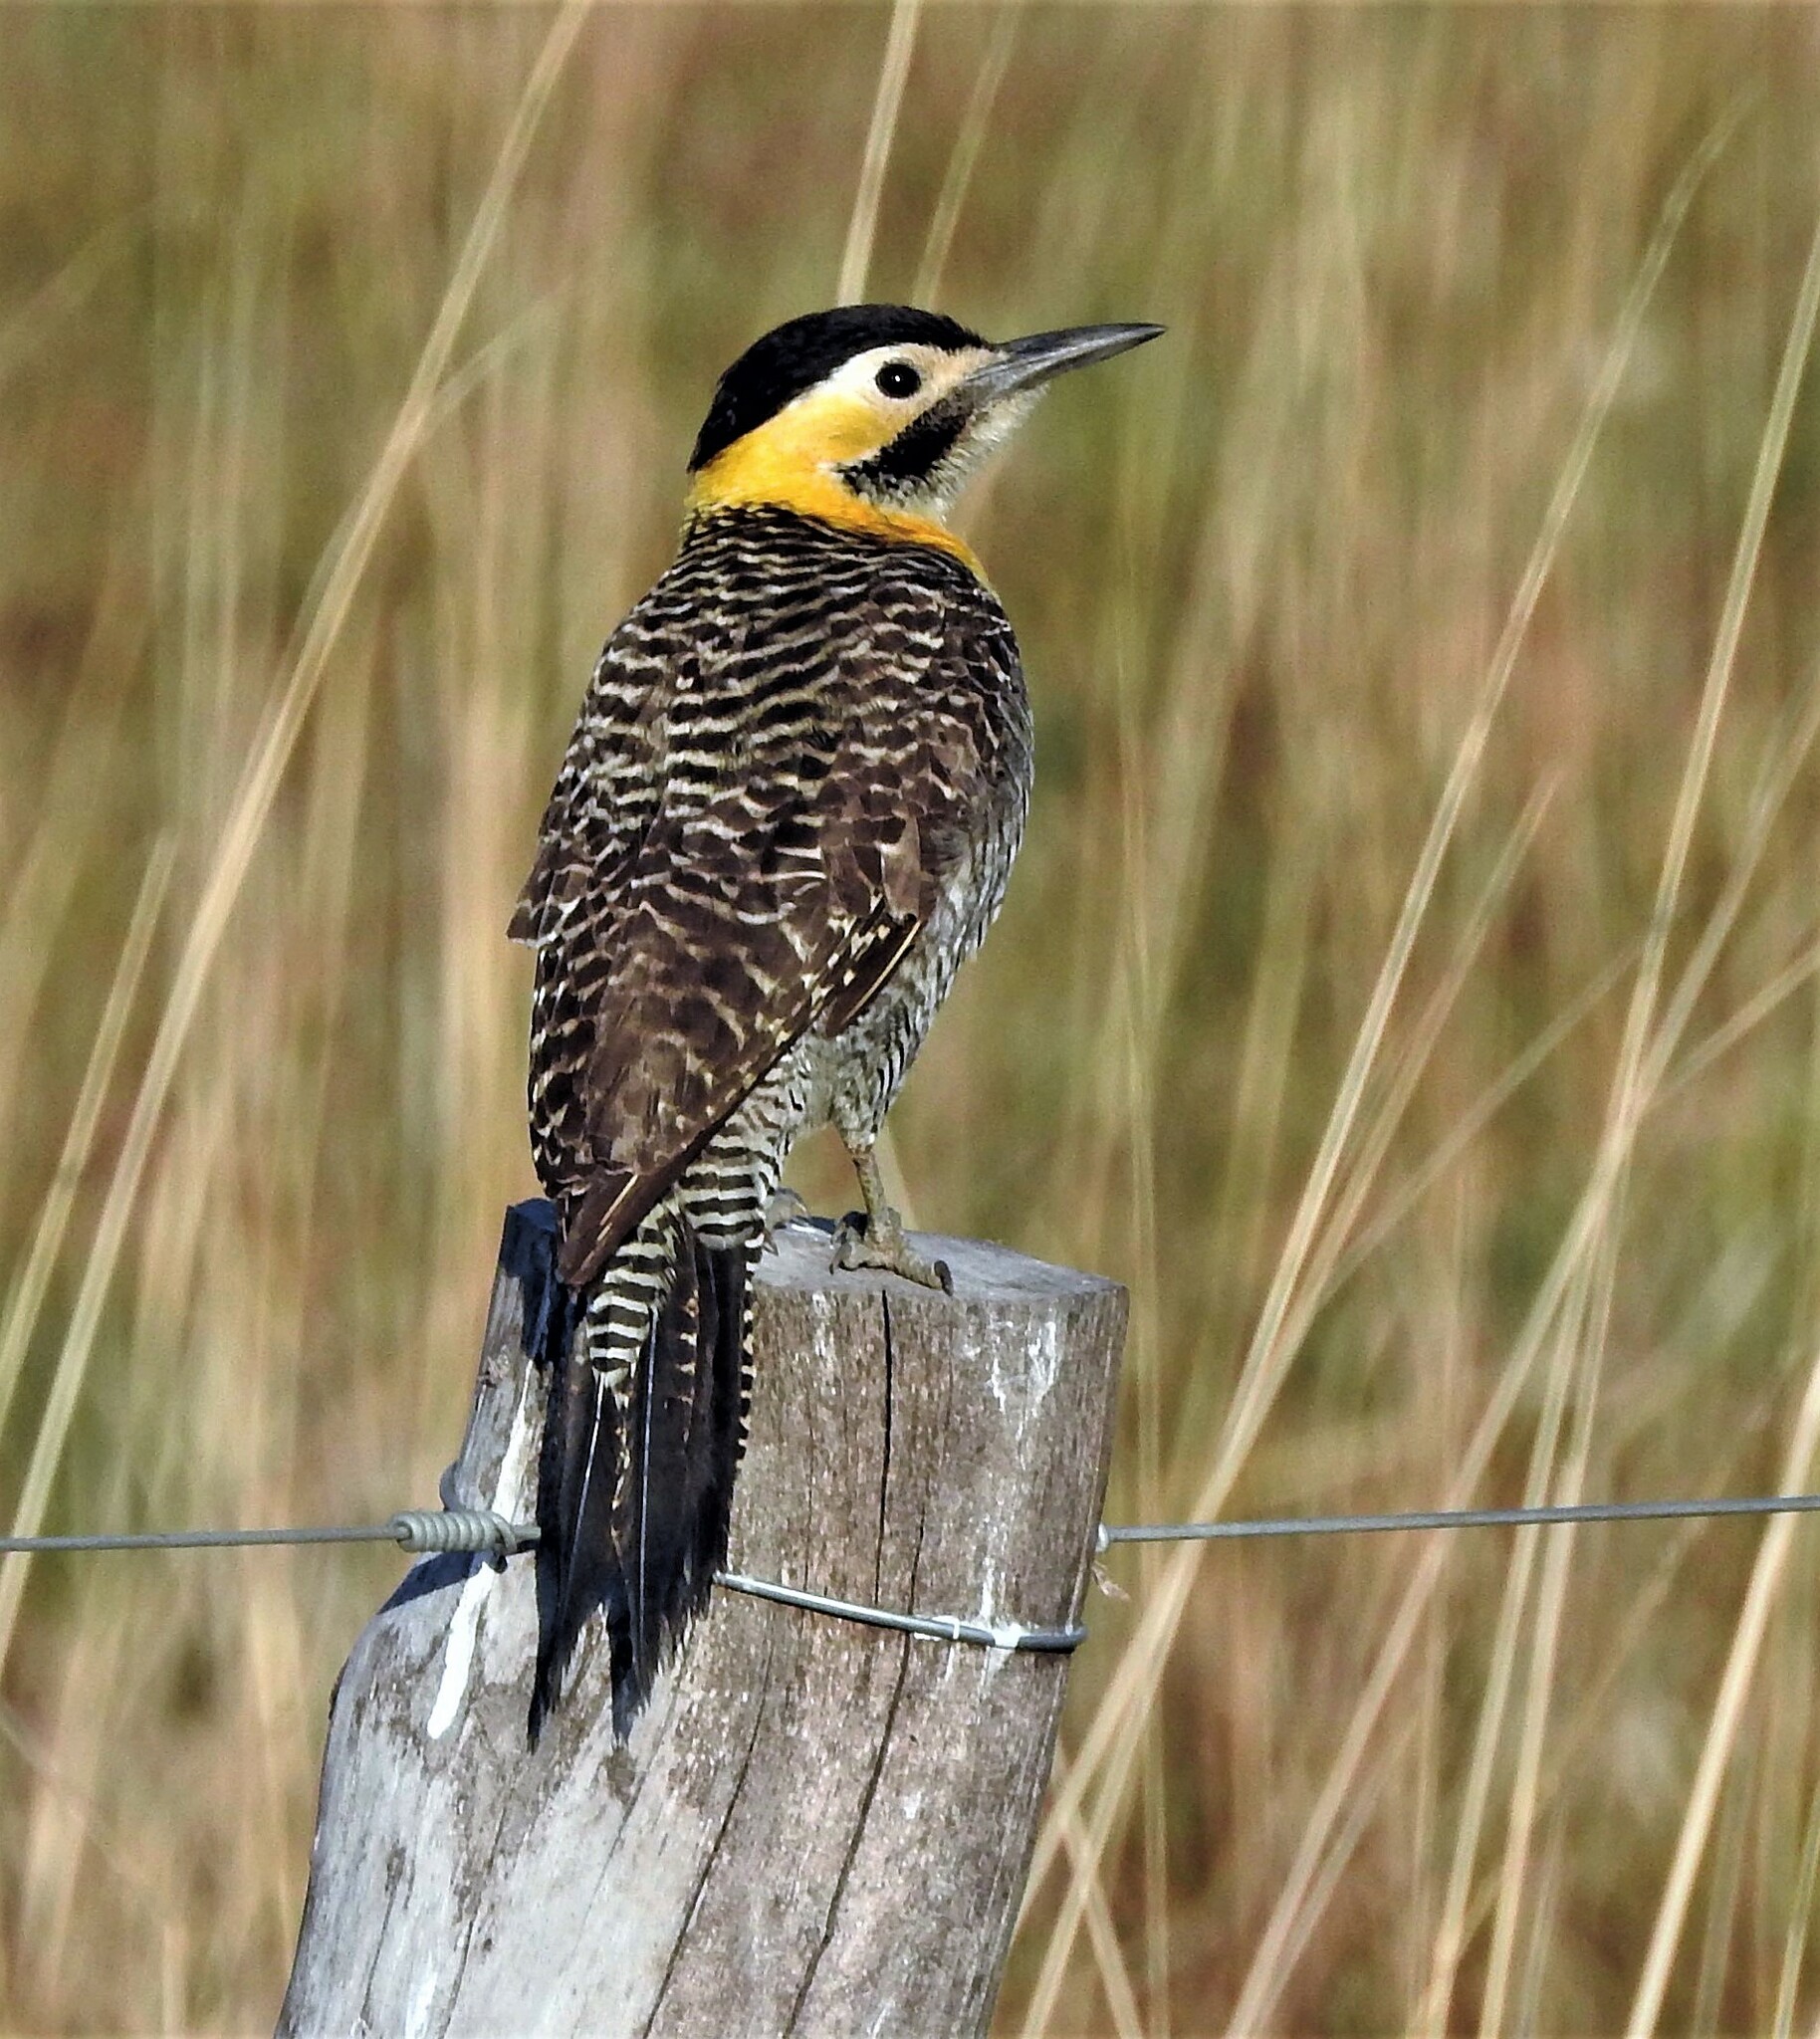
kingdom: Animalia
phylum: Chordata
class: Aves
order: Piciformes
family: Picidae
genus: Colaptes
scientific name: Colaptes campestris
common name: Campo flicker
